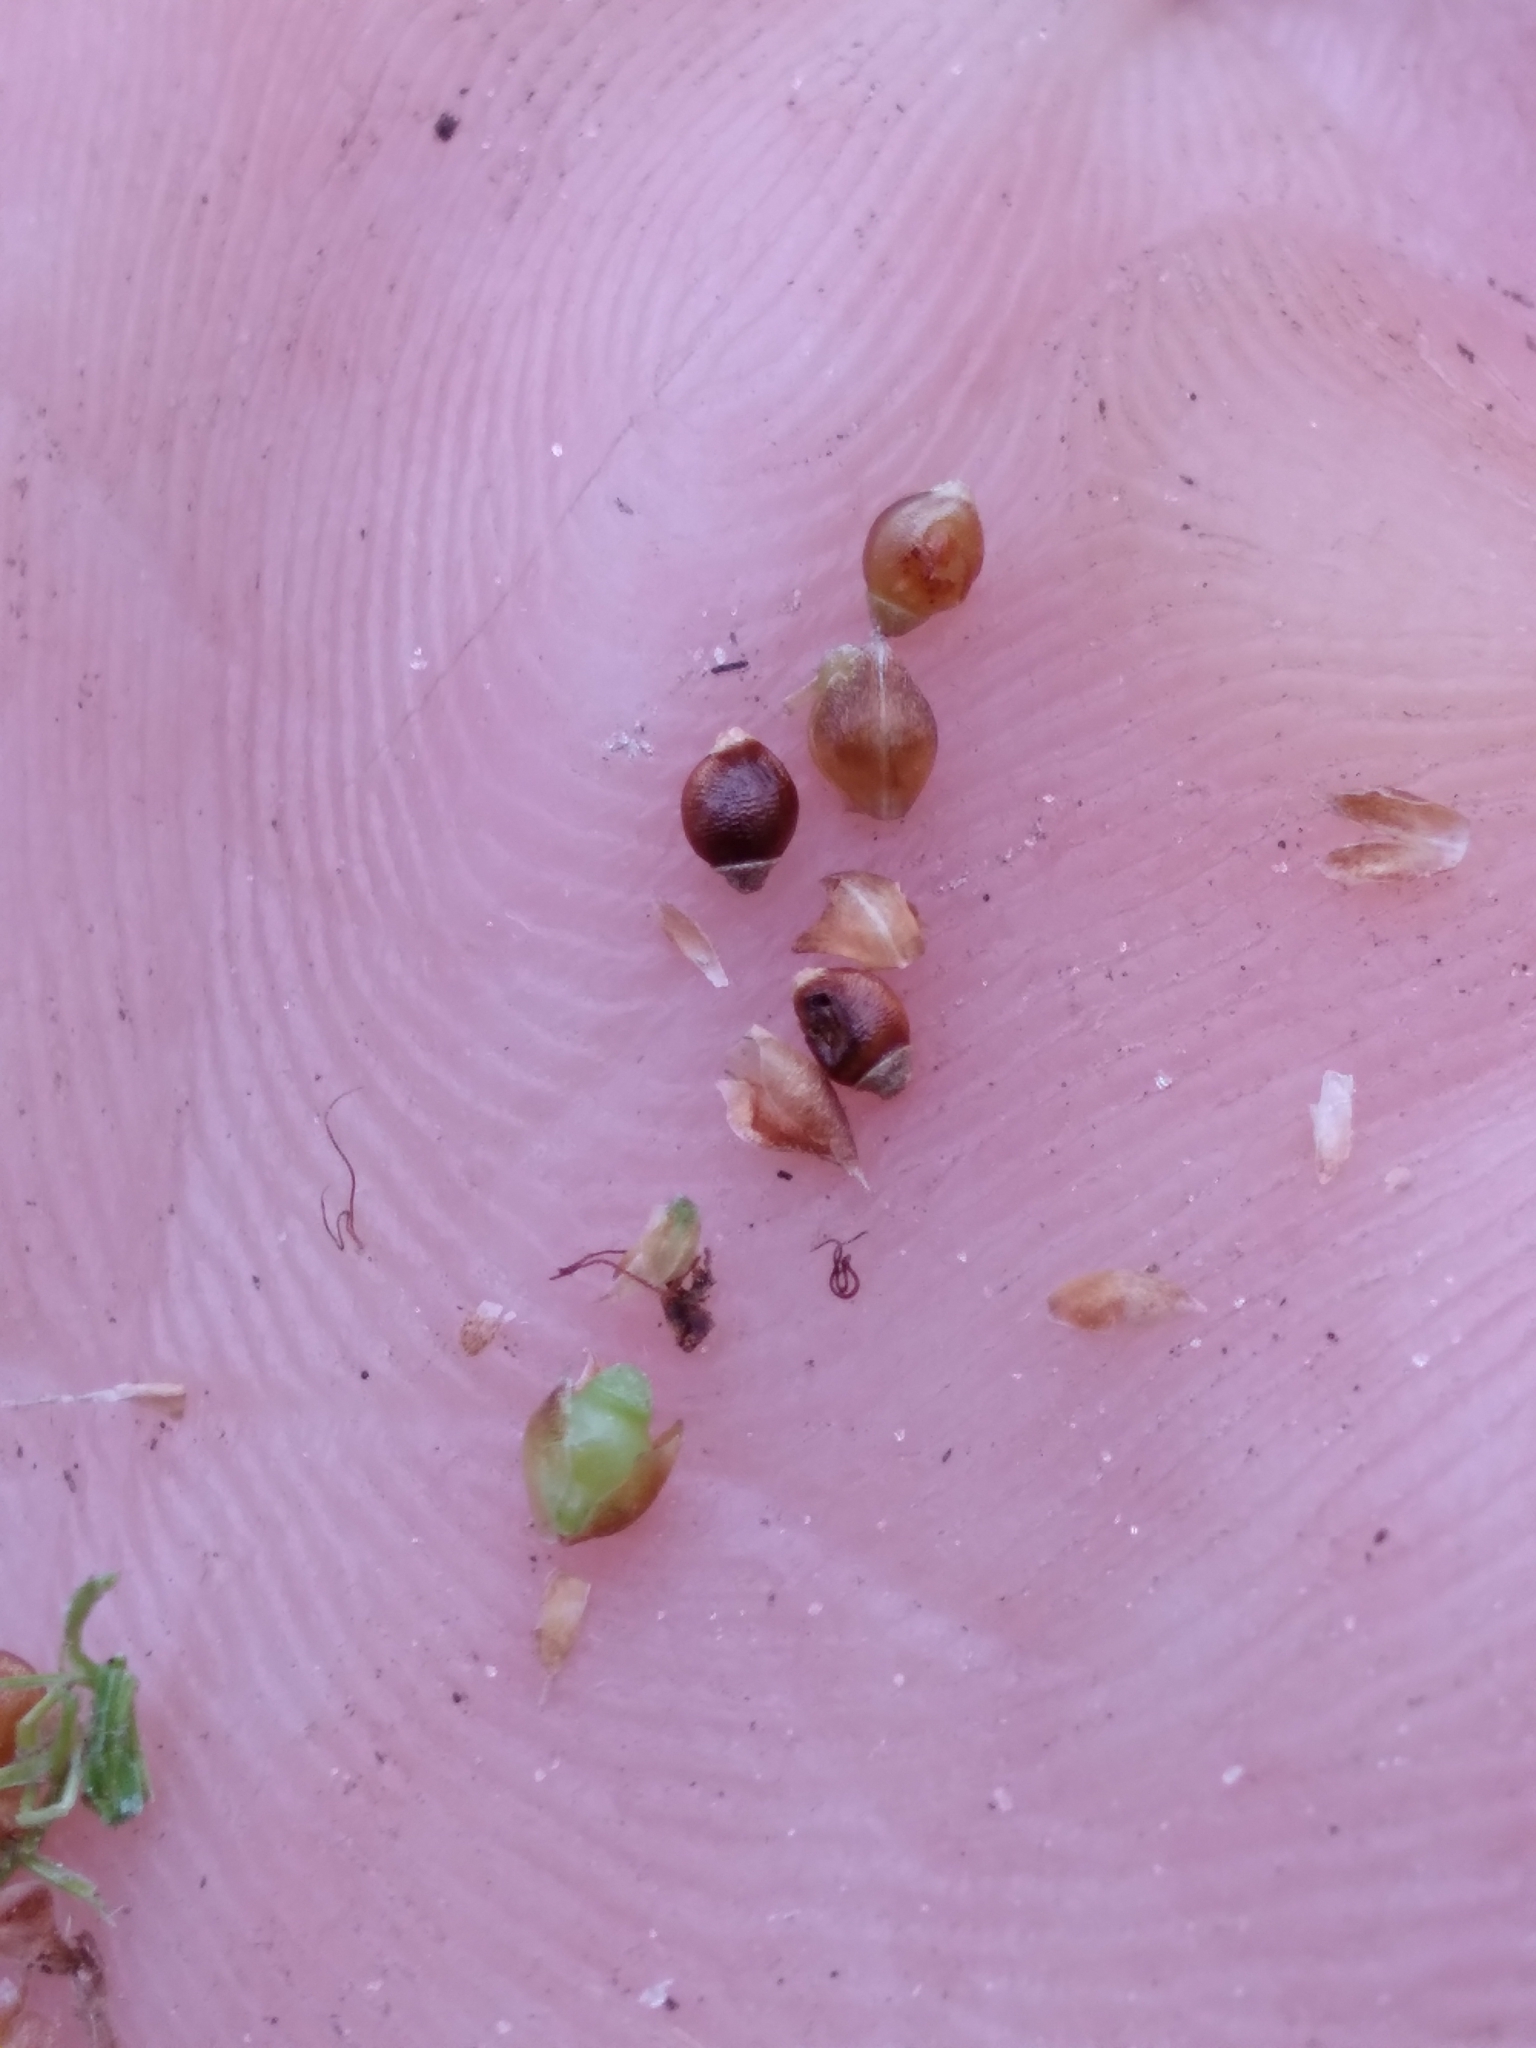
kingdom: Plantae
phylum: Tracheophyta
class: Liliopsida
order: Poales
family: Cyperaceae
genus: Rhynchospora
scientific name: Rhynchospora harveyi
